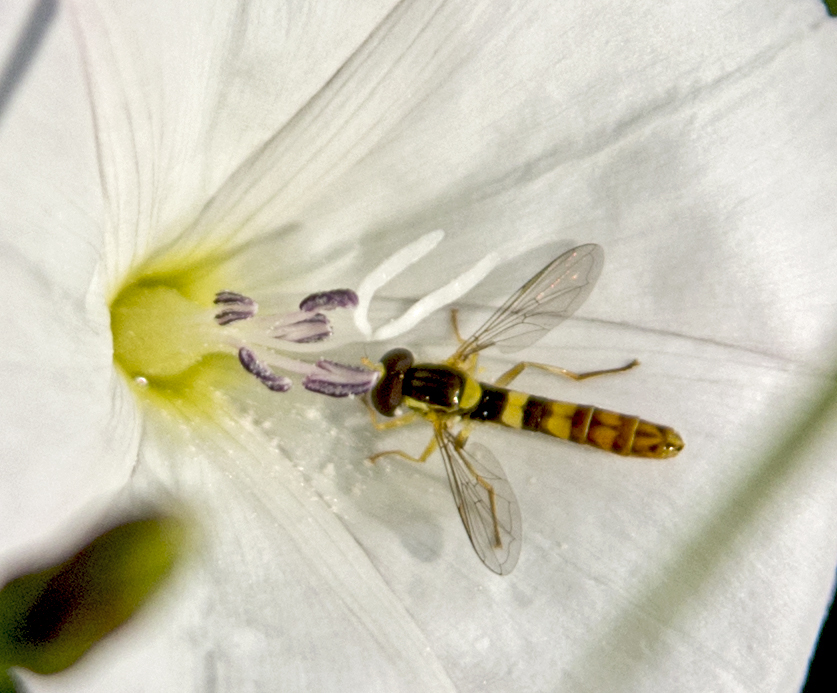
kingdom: Animalia
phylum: Arthropoda
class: Insecta
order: Diptera
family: Syrphidae
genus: Sphaerophoria
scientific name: Sphaerophoria scripta
